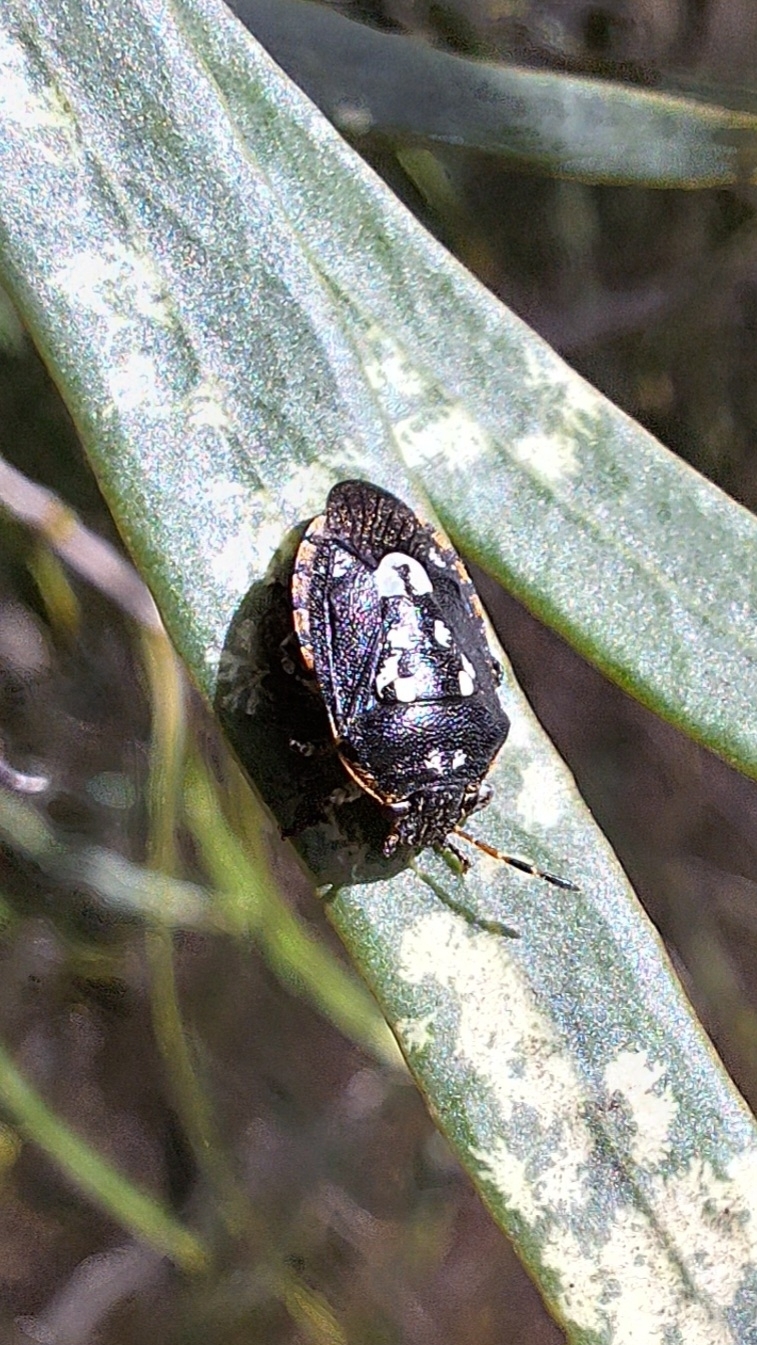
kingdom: Animalia
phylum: Arthropoda
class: Insecta
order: Hemiptera
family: Pentatomidae
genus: Pseudapines
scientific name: Pseudapines
